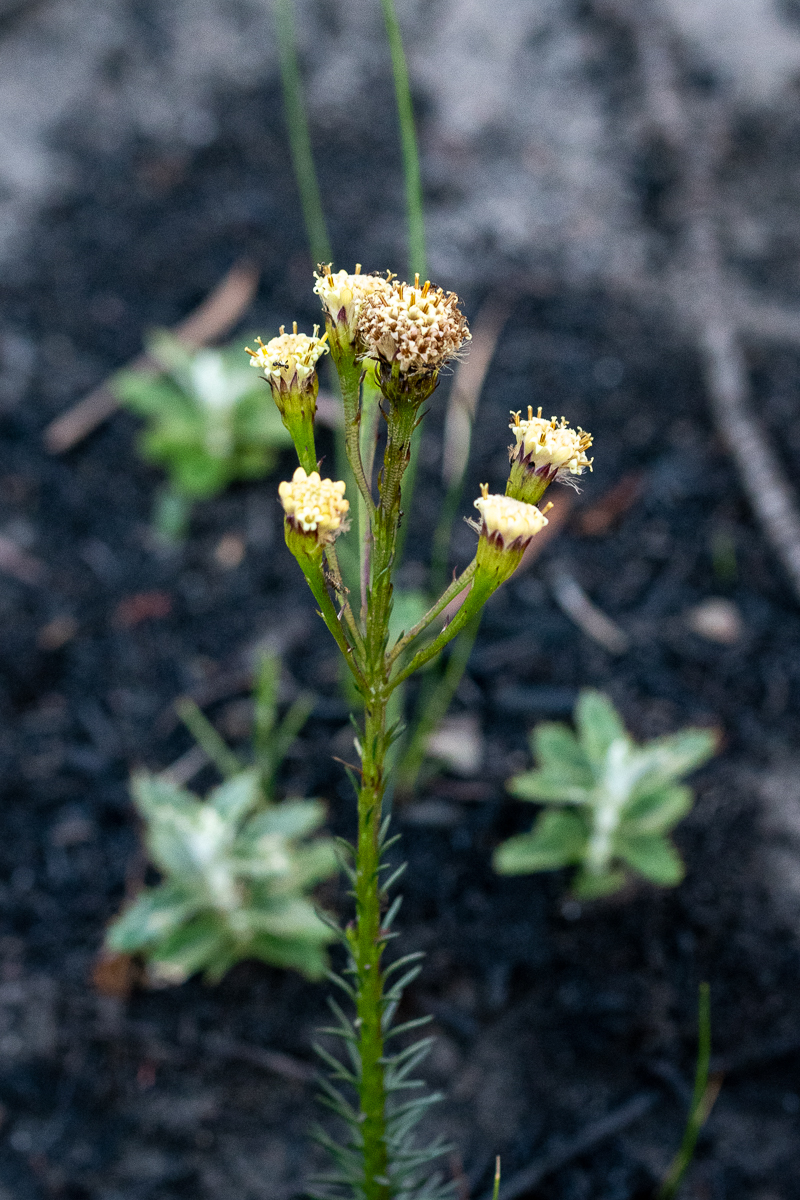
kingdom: Plantae
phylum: Tracheophyta
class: Magnoliopsida
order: Asterales
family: Asteraceae
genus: Senecio
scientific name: Senecio triqueter
